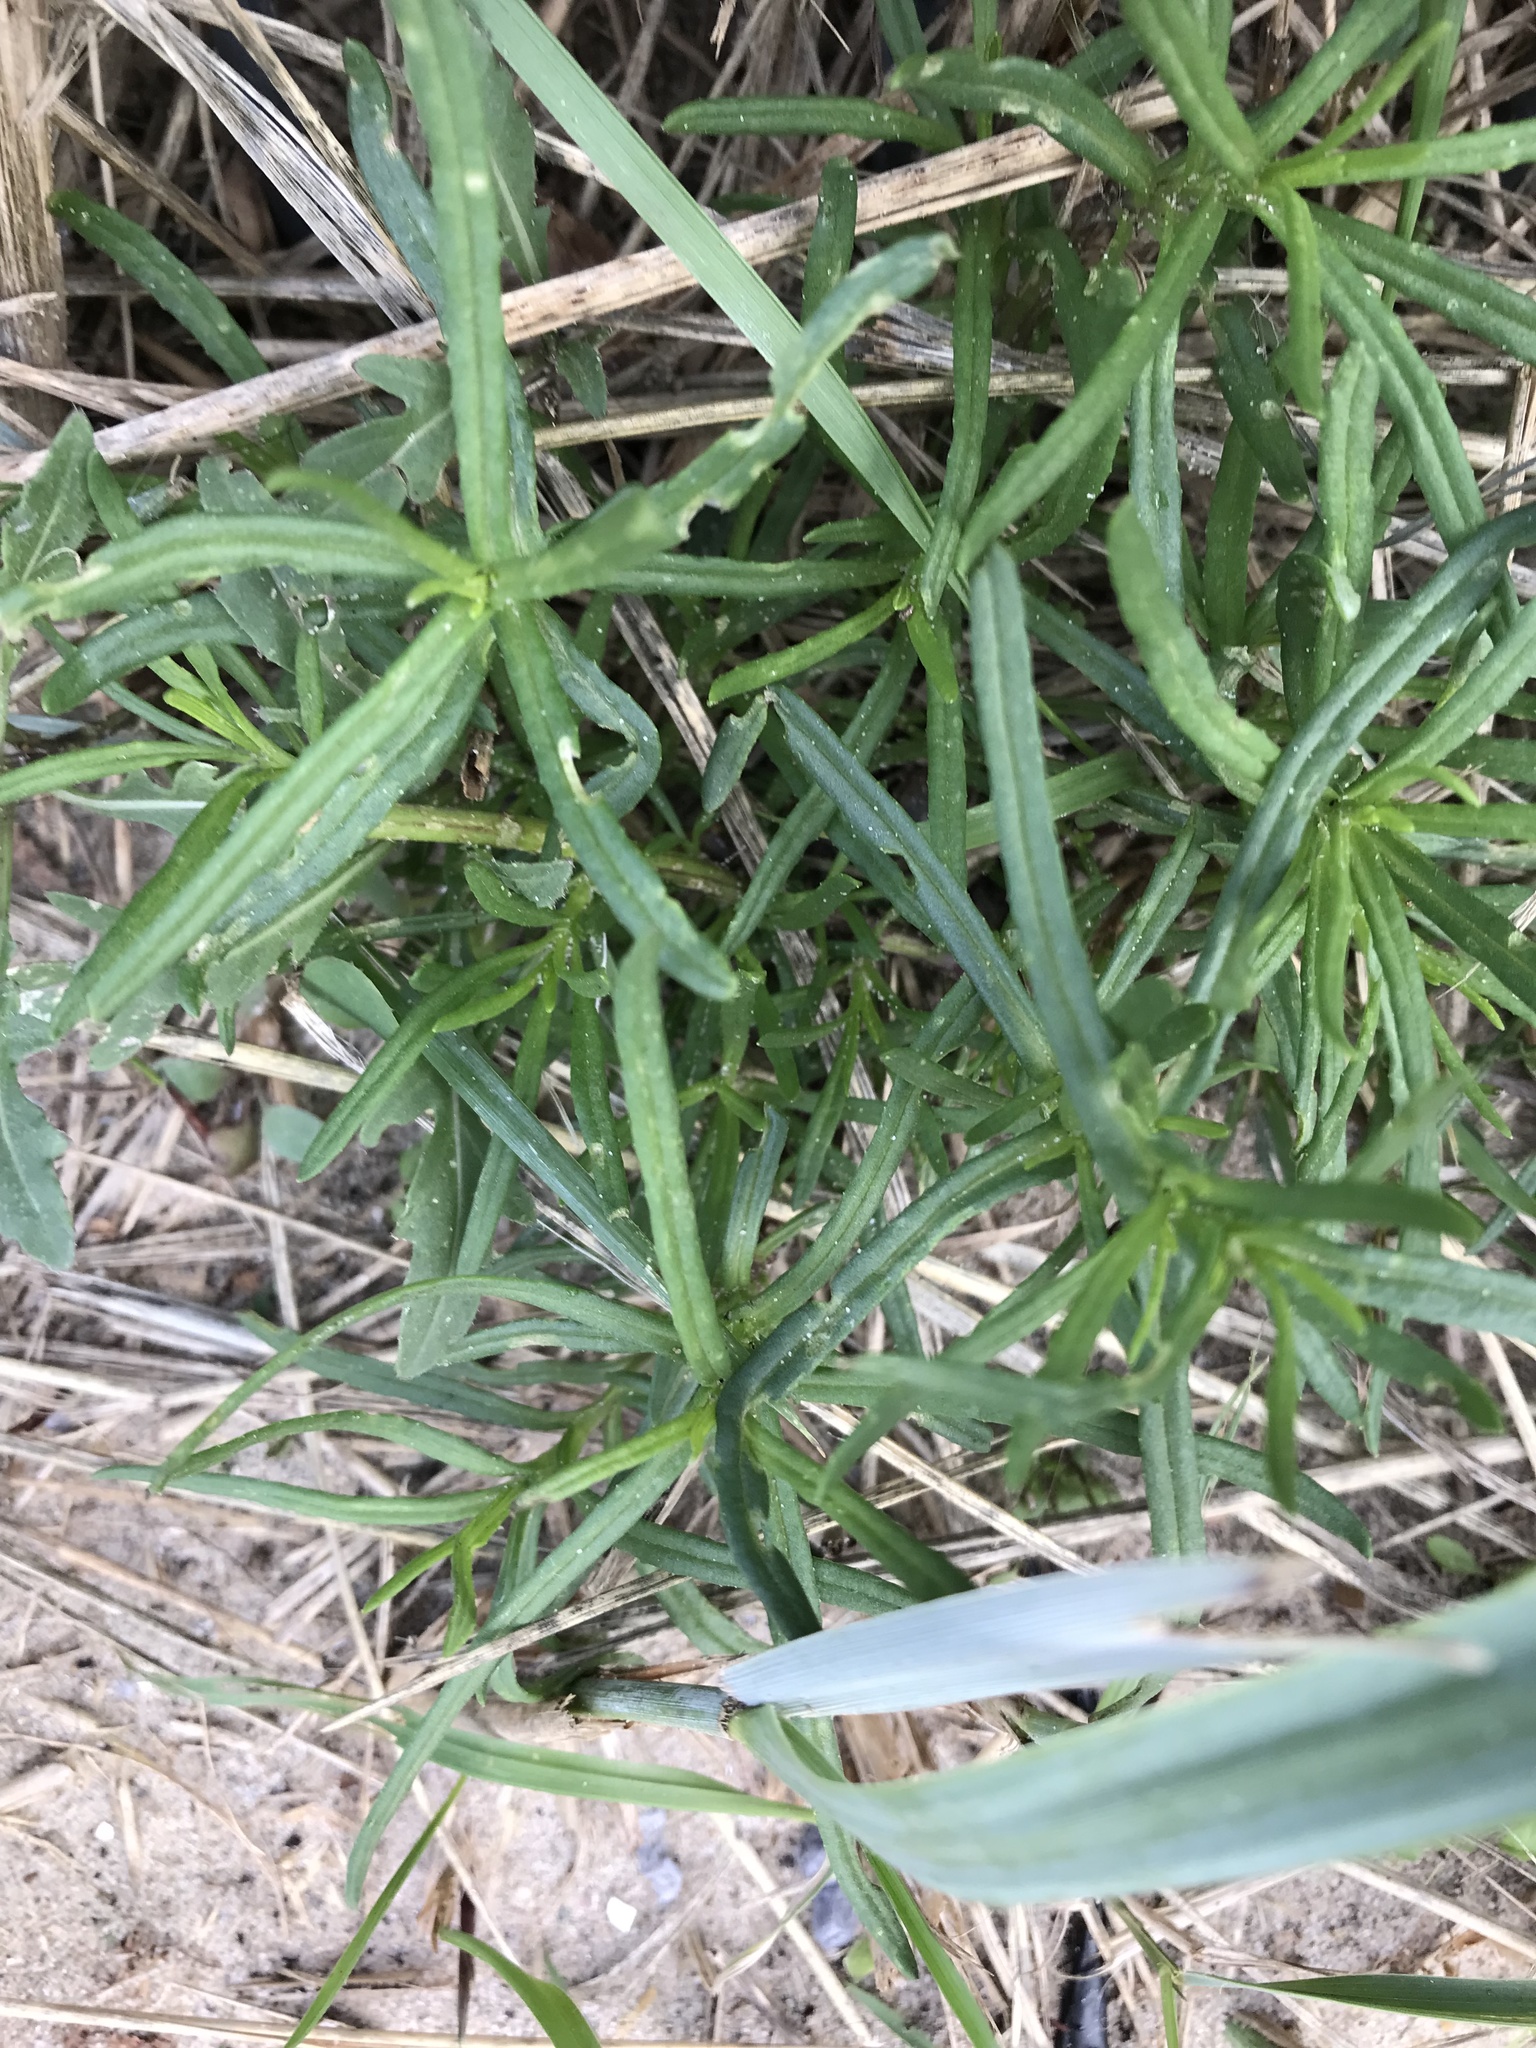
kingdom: Plantae
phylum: Tracheophyta
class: Magnoliopsida
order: Asterales
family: Asteraceae
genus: Senecio
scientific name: Senecio inaequidens
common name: Narrow-leaved ragwort
